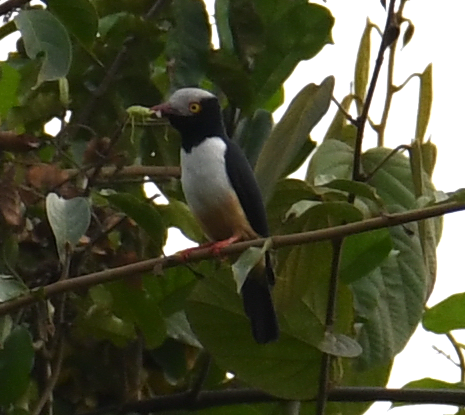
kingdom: Animalia
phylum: Chordata
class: Aves
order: Passeriformes
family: Prionopidae
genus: Prionops
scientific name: Prionops caniceps
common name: Red-billed helmetshrike
